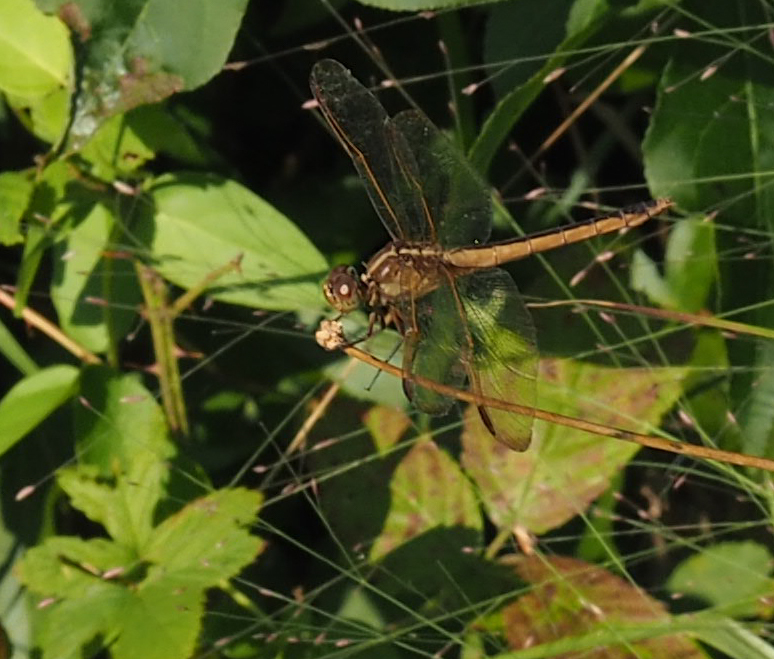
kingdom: Animalia
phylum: Arthropoda
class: Insecta
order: Odonata
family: Libellulidae
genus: Libellula
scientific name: Libellula needhami
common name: Needham's skimmer
